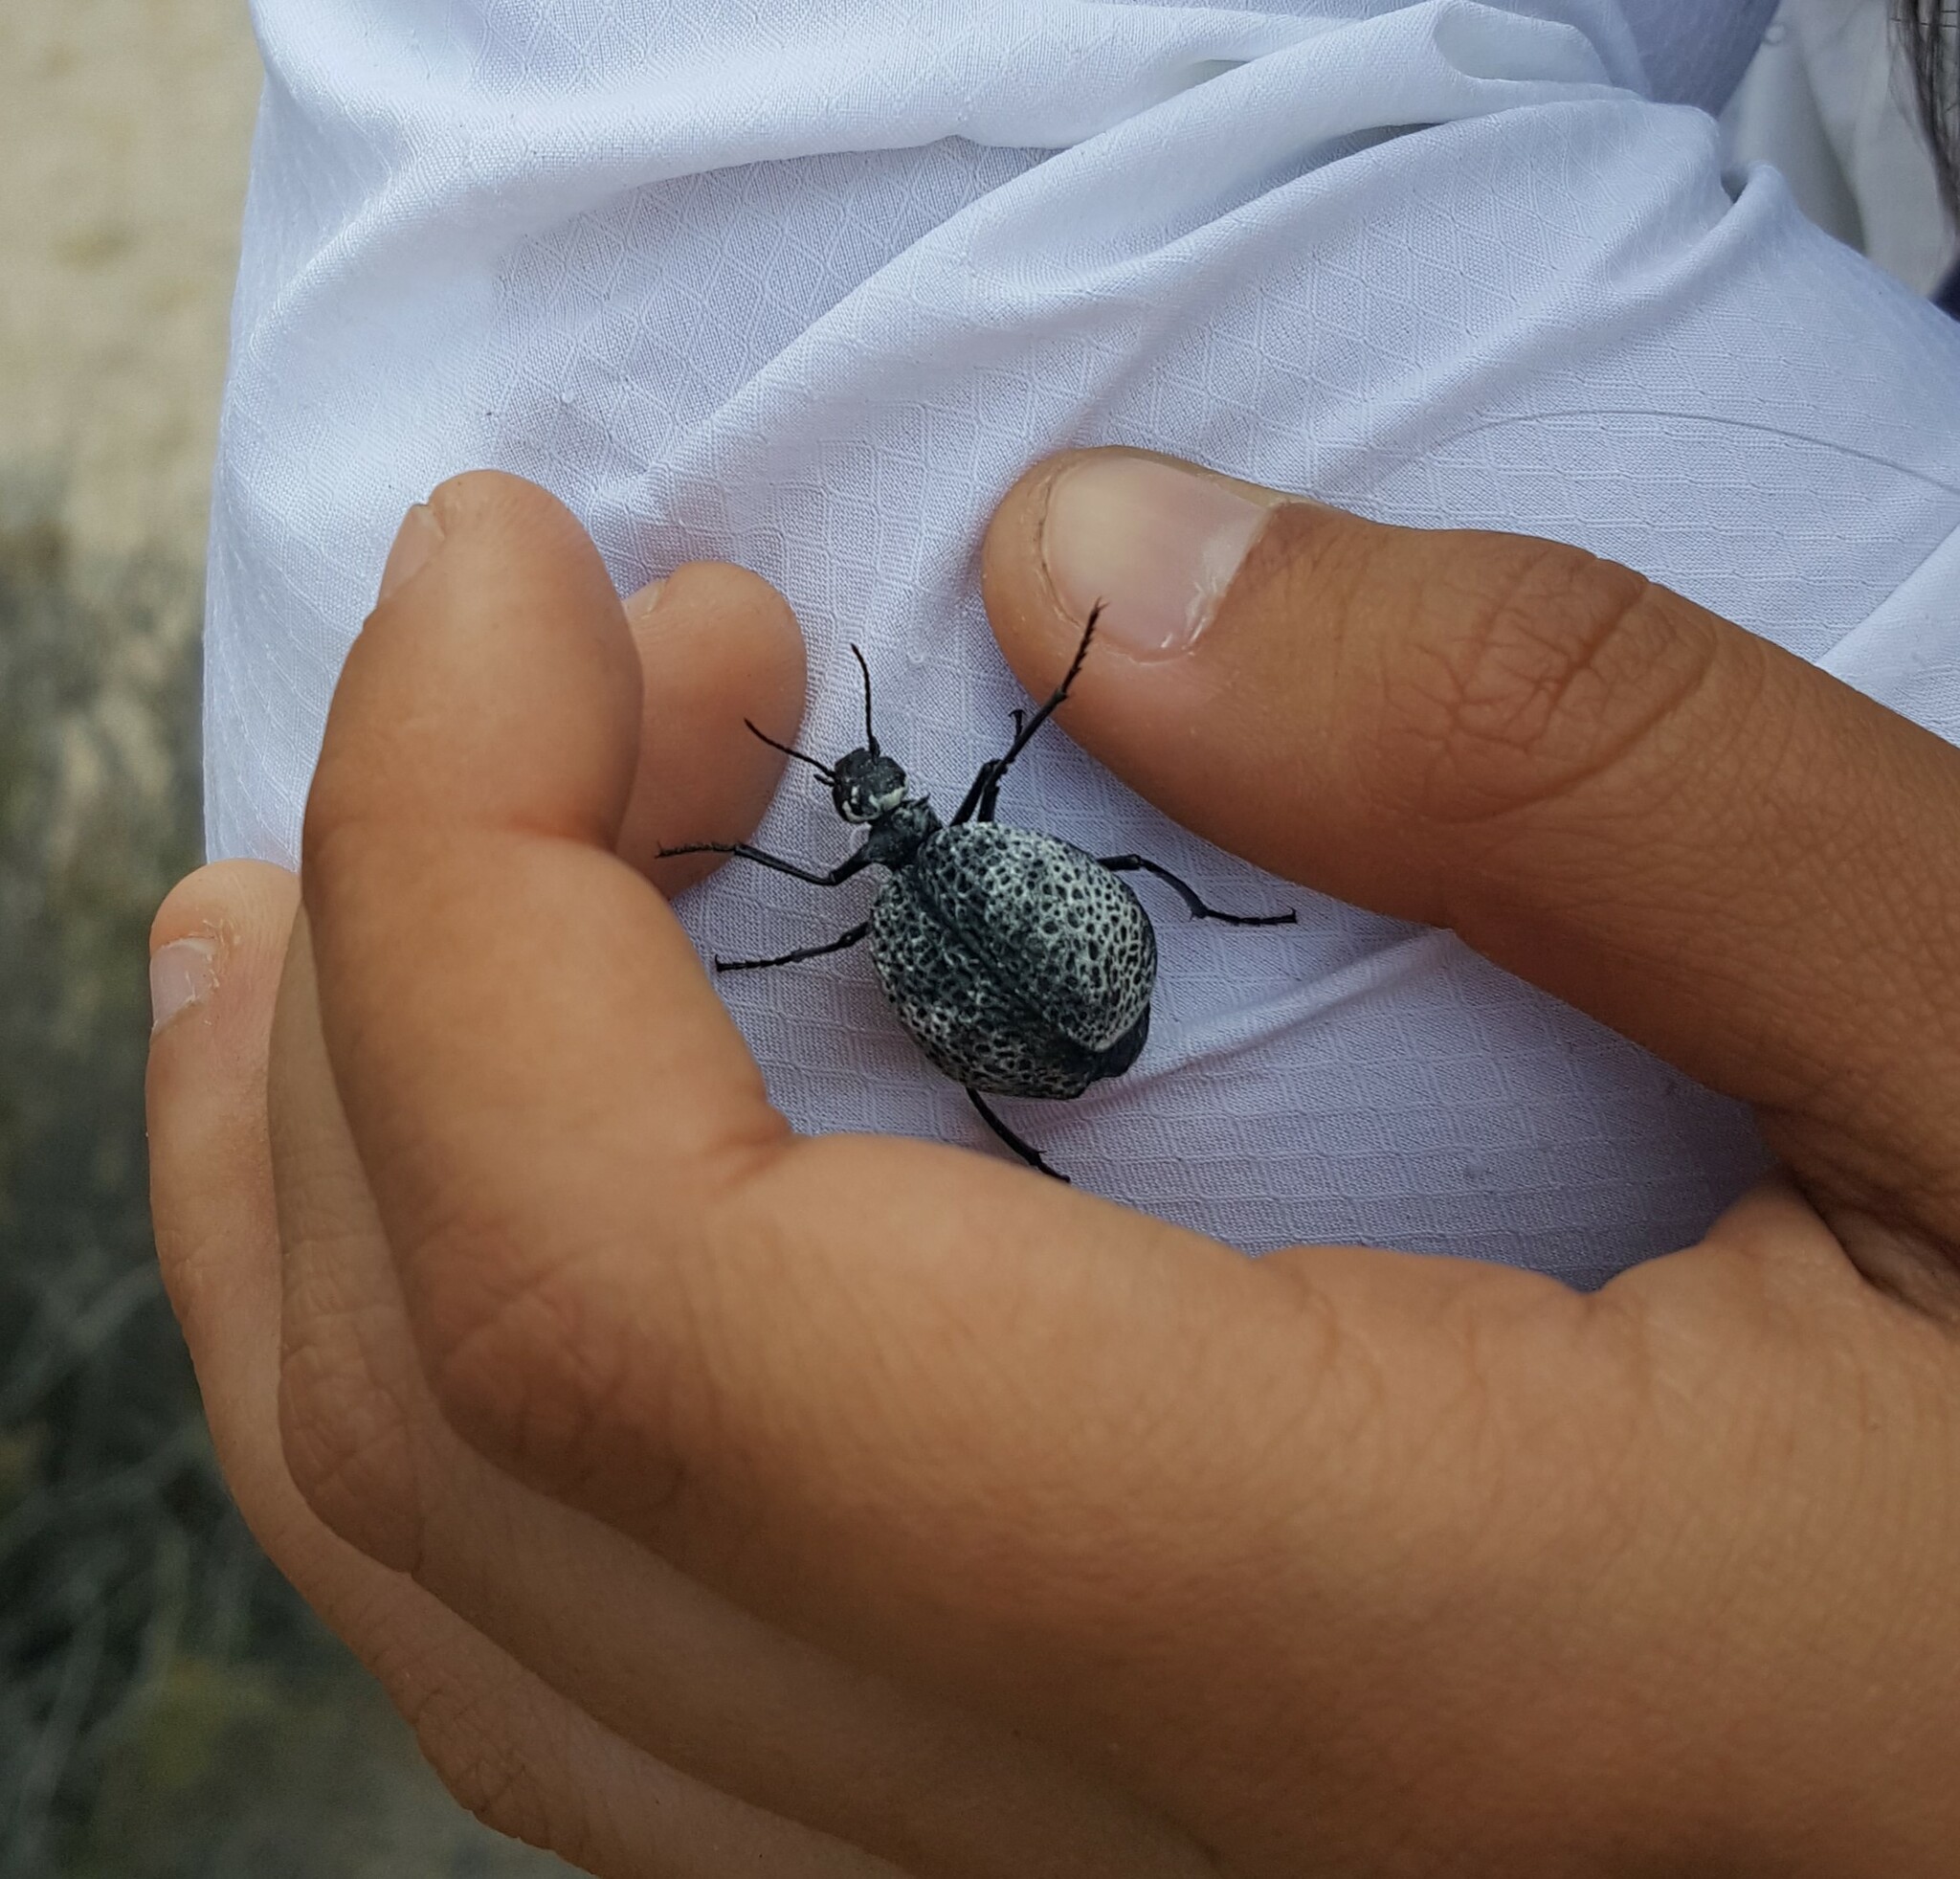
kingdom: Animalia
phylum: Arthropoda
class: Insecta
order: Coleoptera
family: Meloidae
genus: Cysteodemus
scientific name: Cysteodemus armatus
